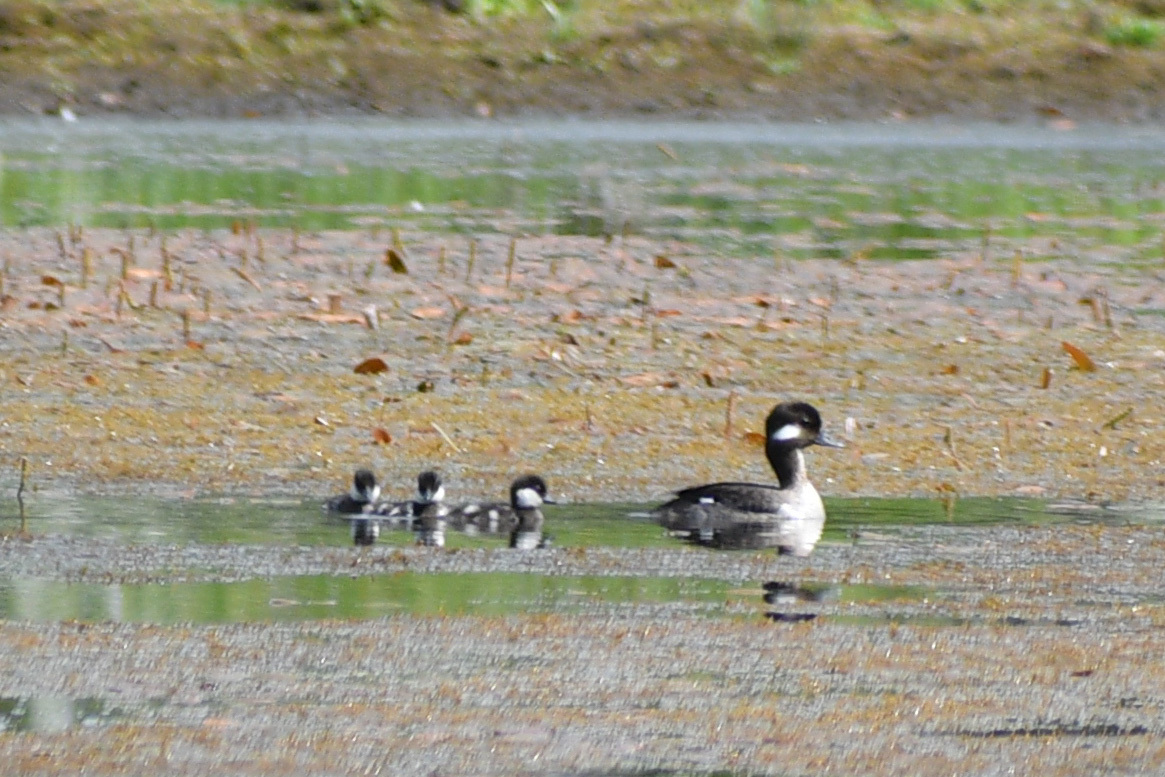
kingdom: Animalia
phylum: Chordata
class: Aves
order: Anseriformes
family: Anatidae
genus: Bucephala
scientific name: Bucephala albeola
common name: Bufflehead
